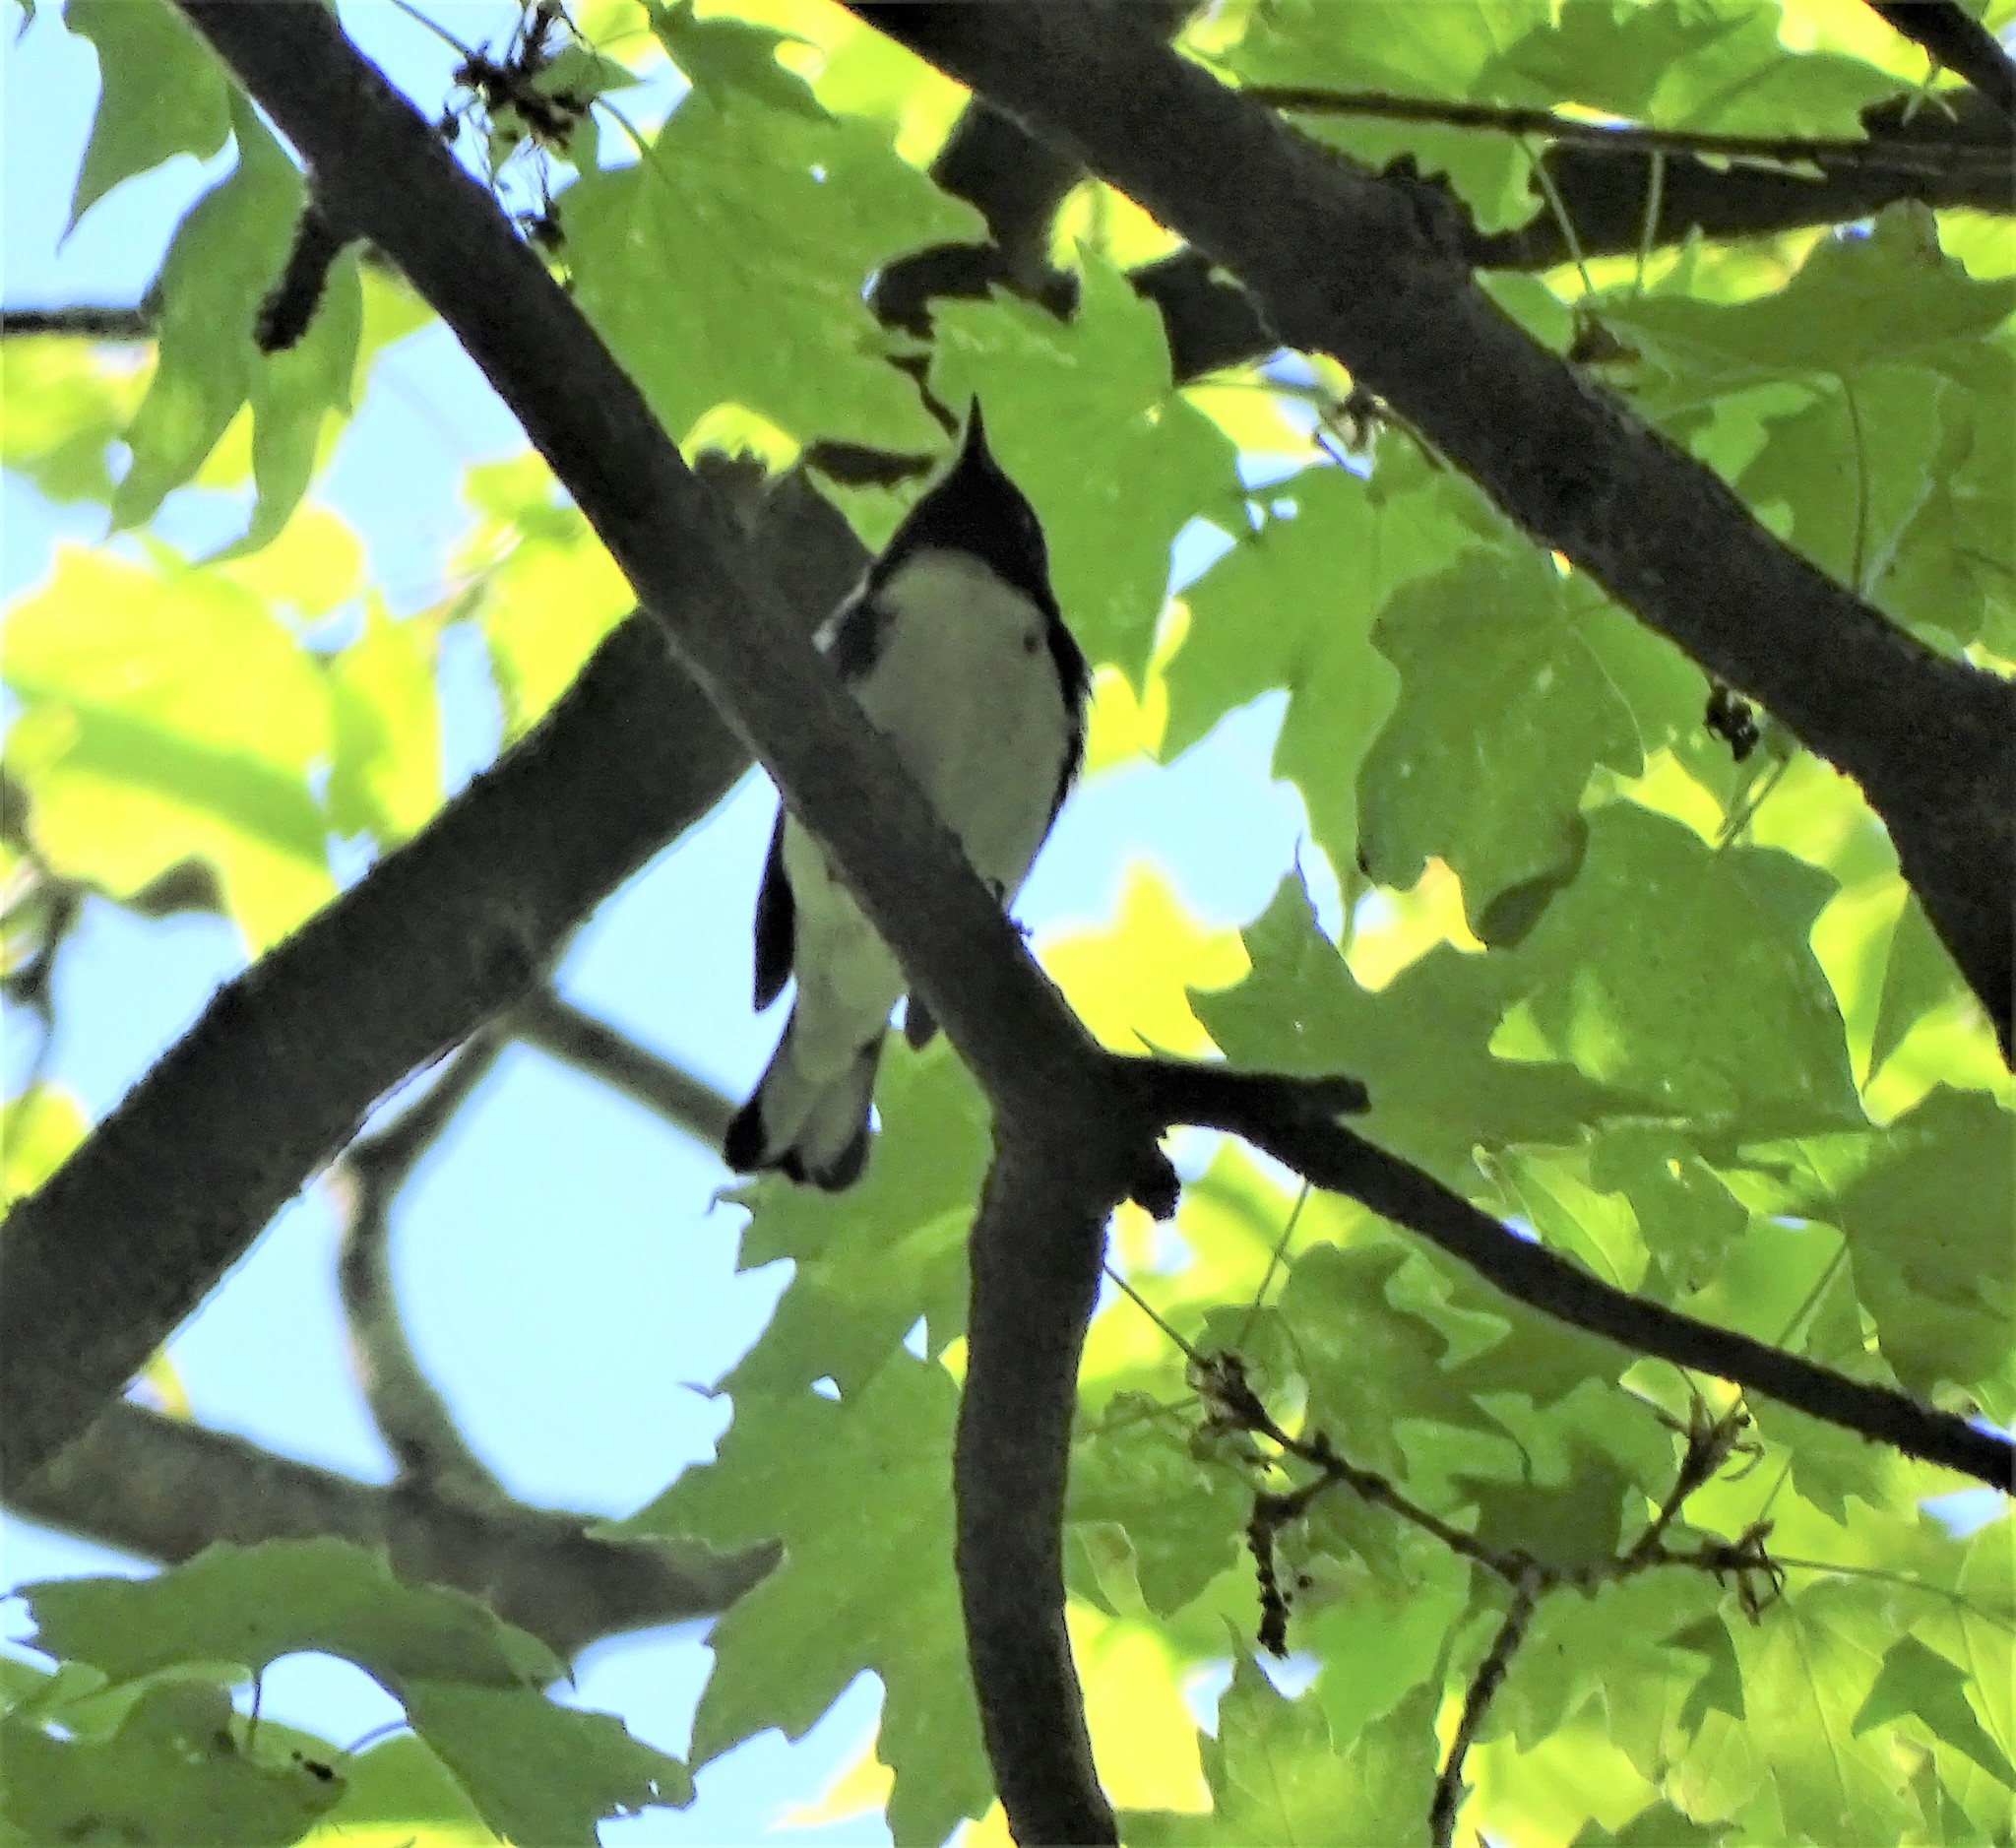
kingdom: Animalia
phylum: Chordata
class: Aves
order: Passeriformes
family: Parulidae
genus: Setophaga
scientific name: Setophaga caerulescens
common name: Black-throated blue warbler
